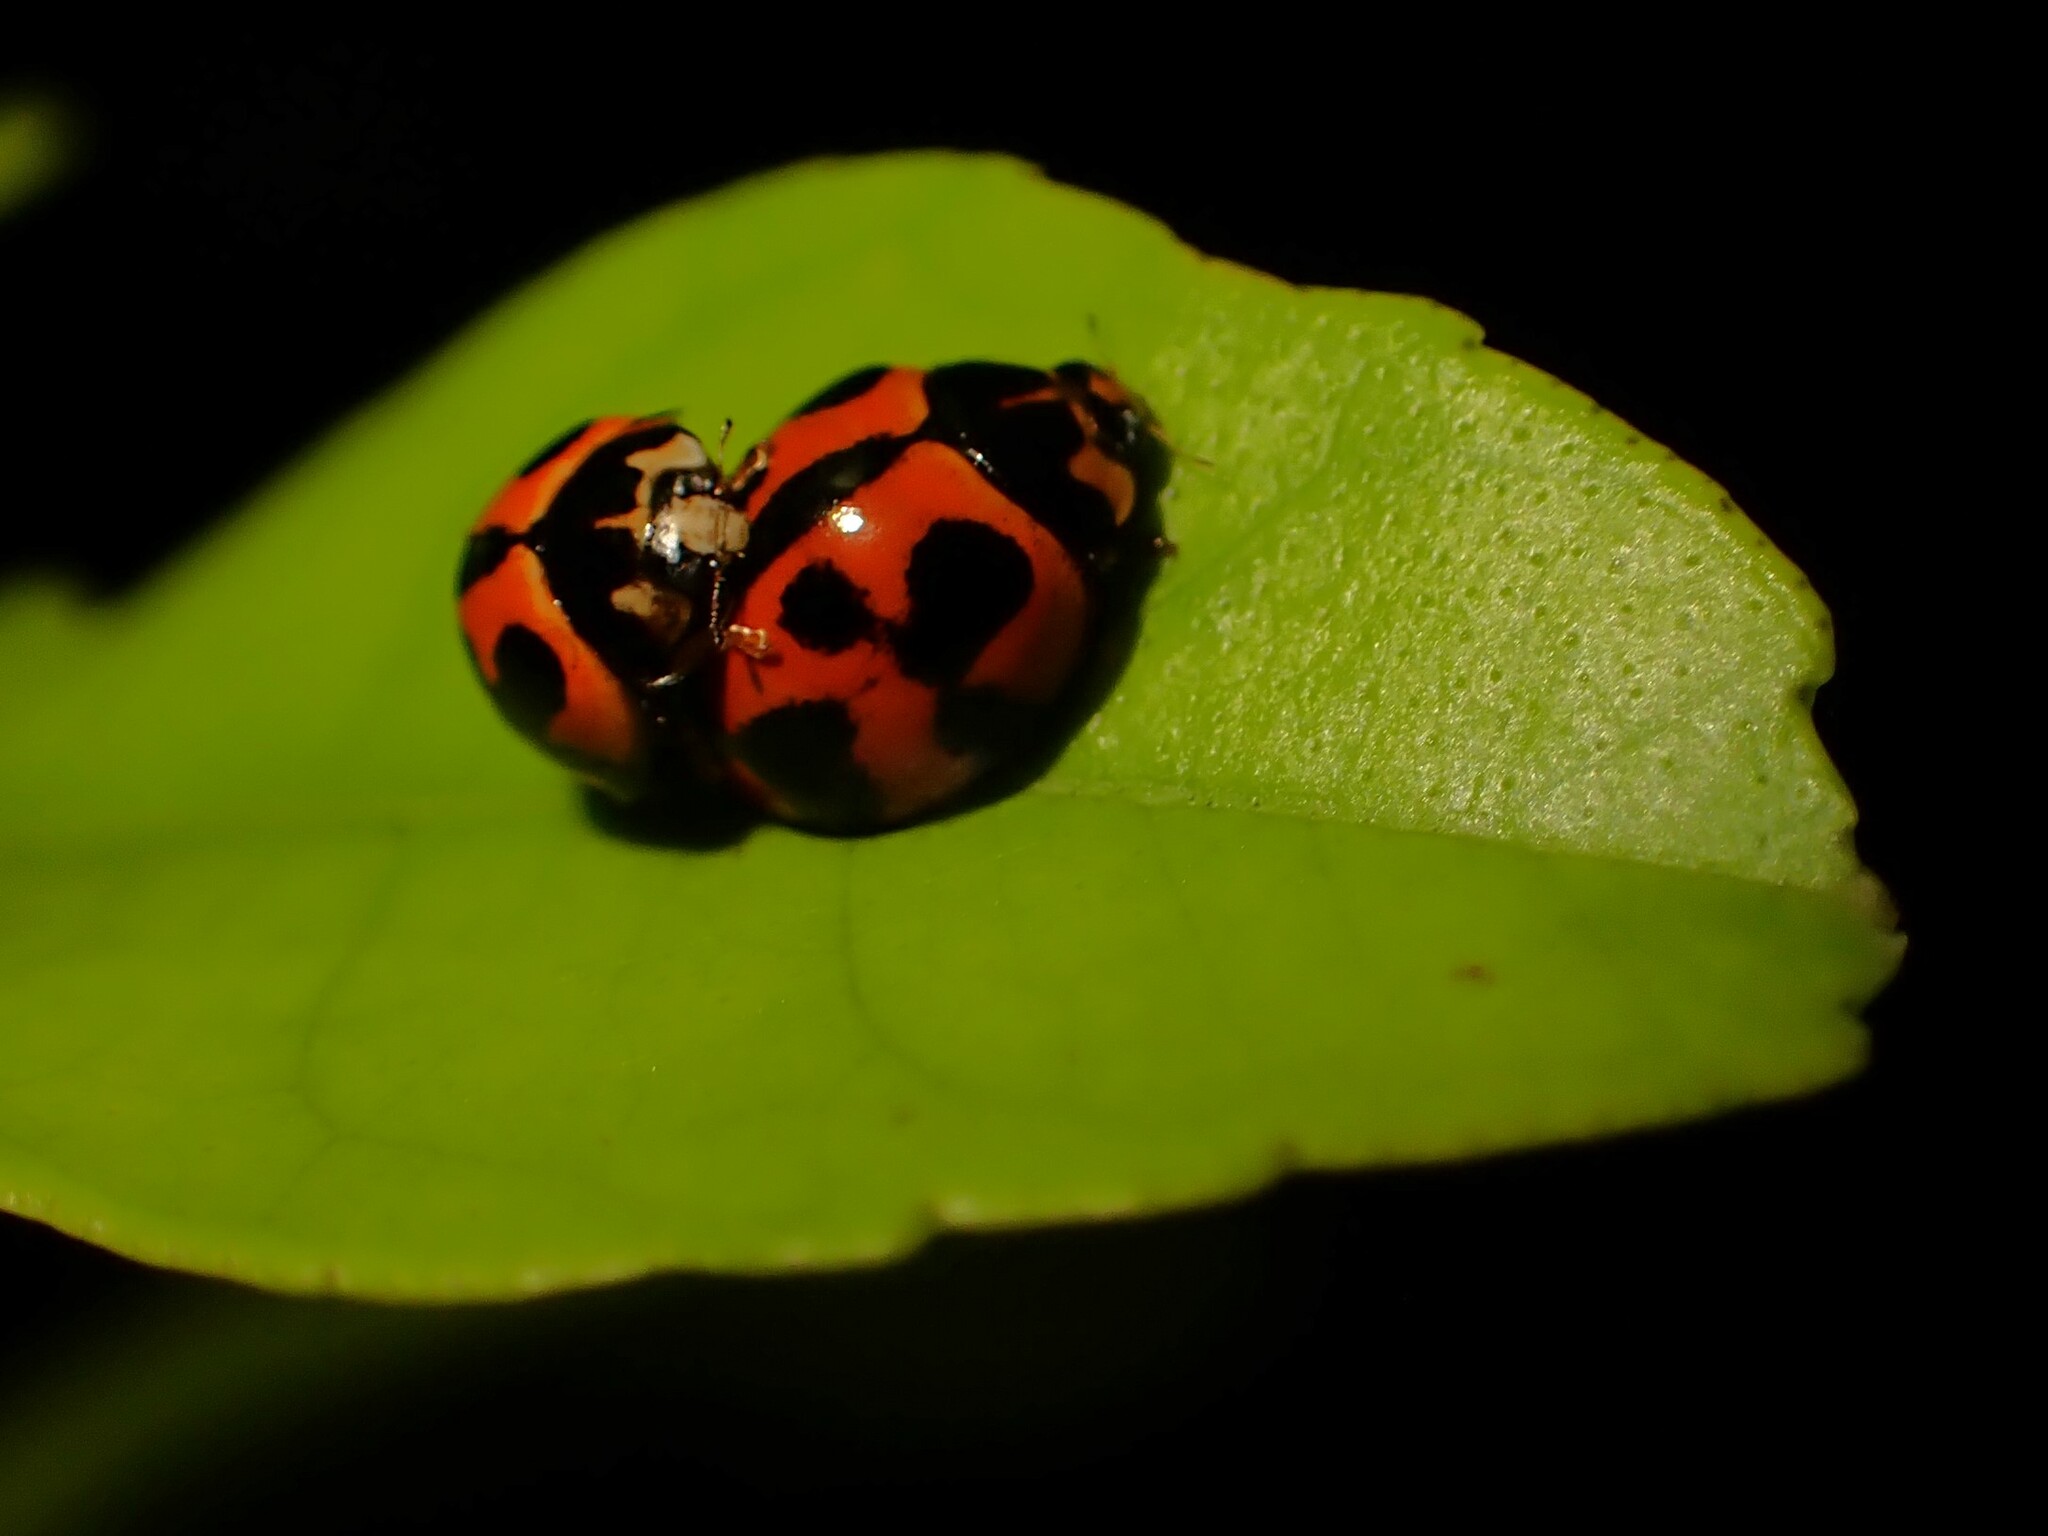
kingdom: Animalia
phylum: Arthropoda
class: Insecta
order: Coleoptera
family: Coccinellidae
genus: Coelophora
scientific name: Coelophora inaequalis
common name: Common australian lady beetle
